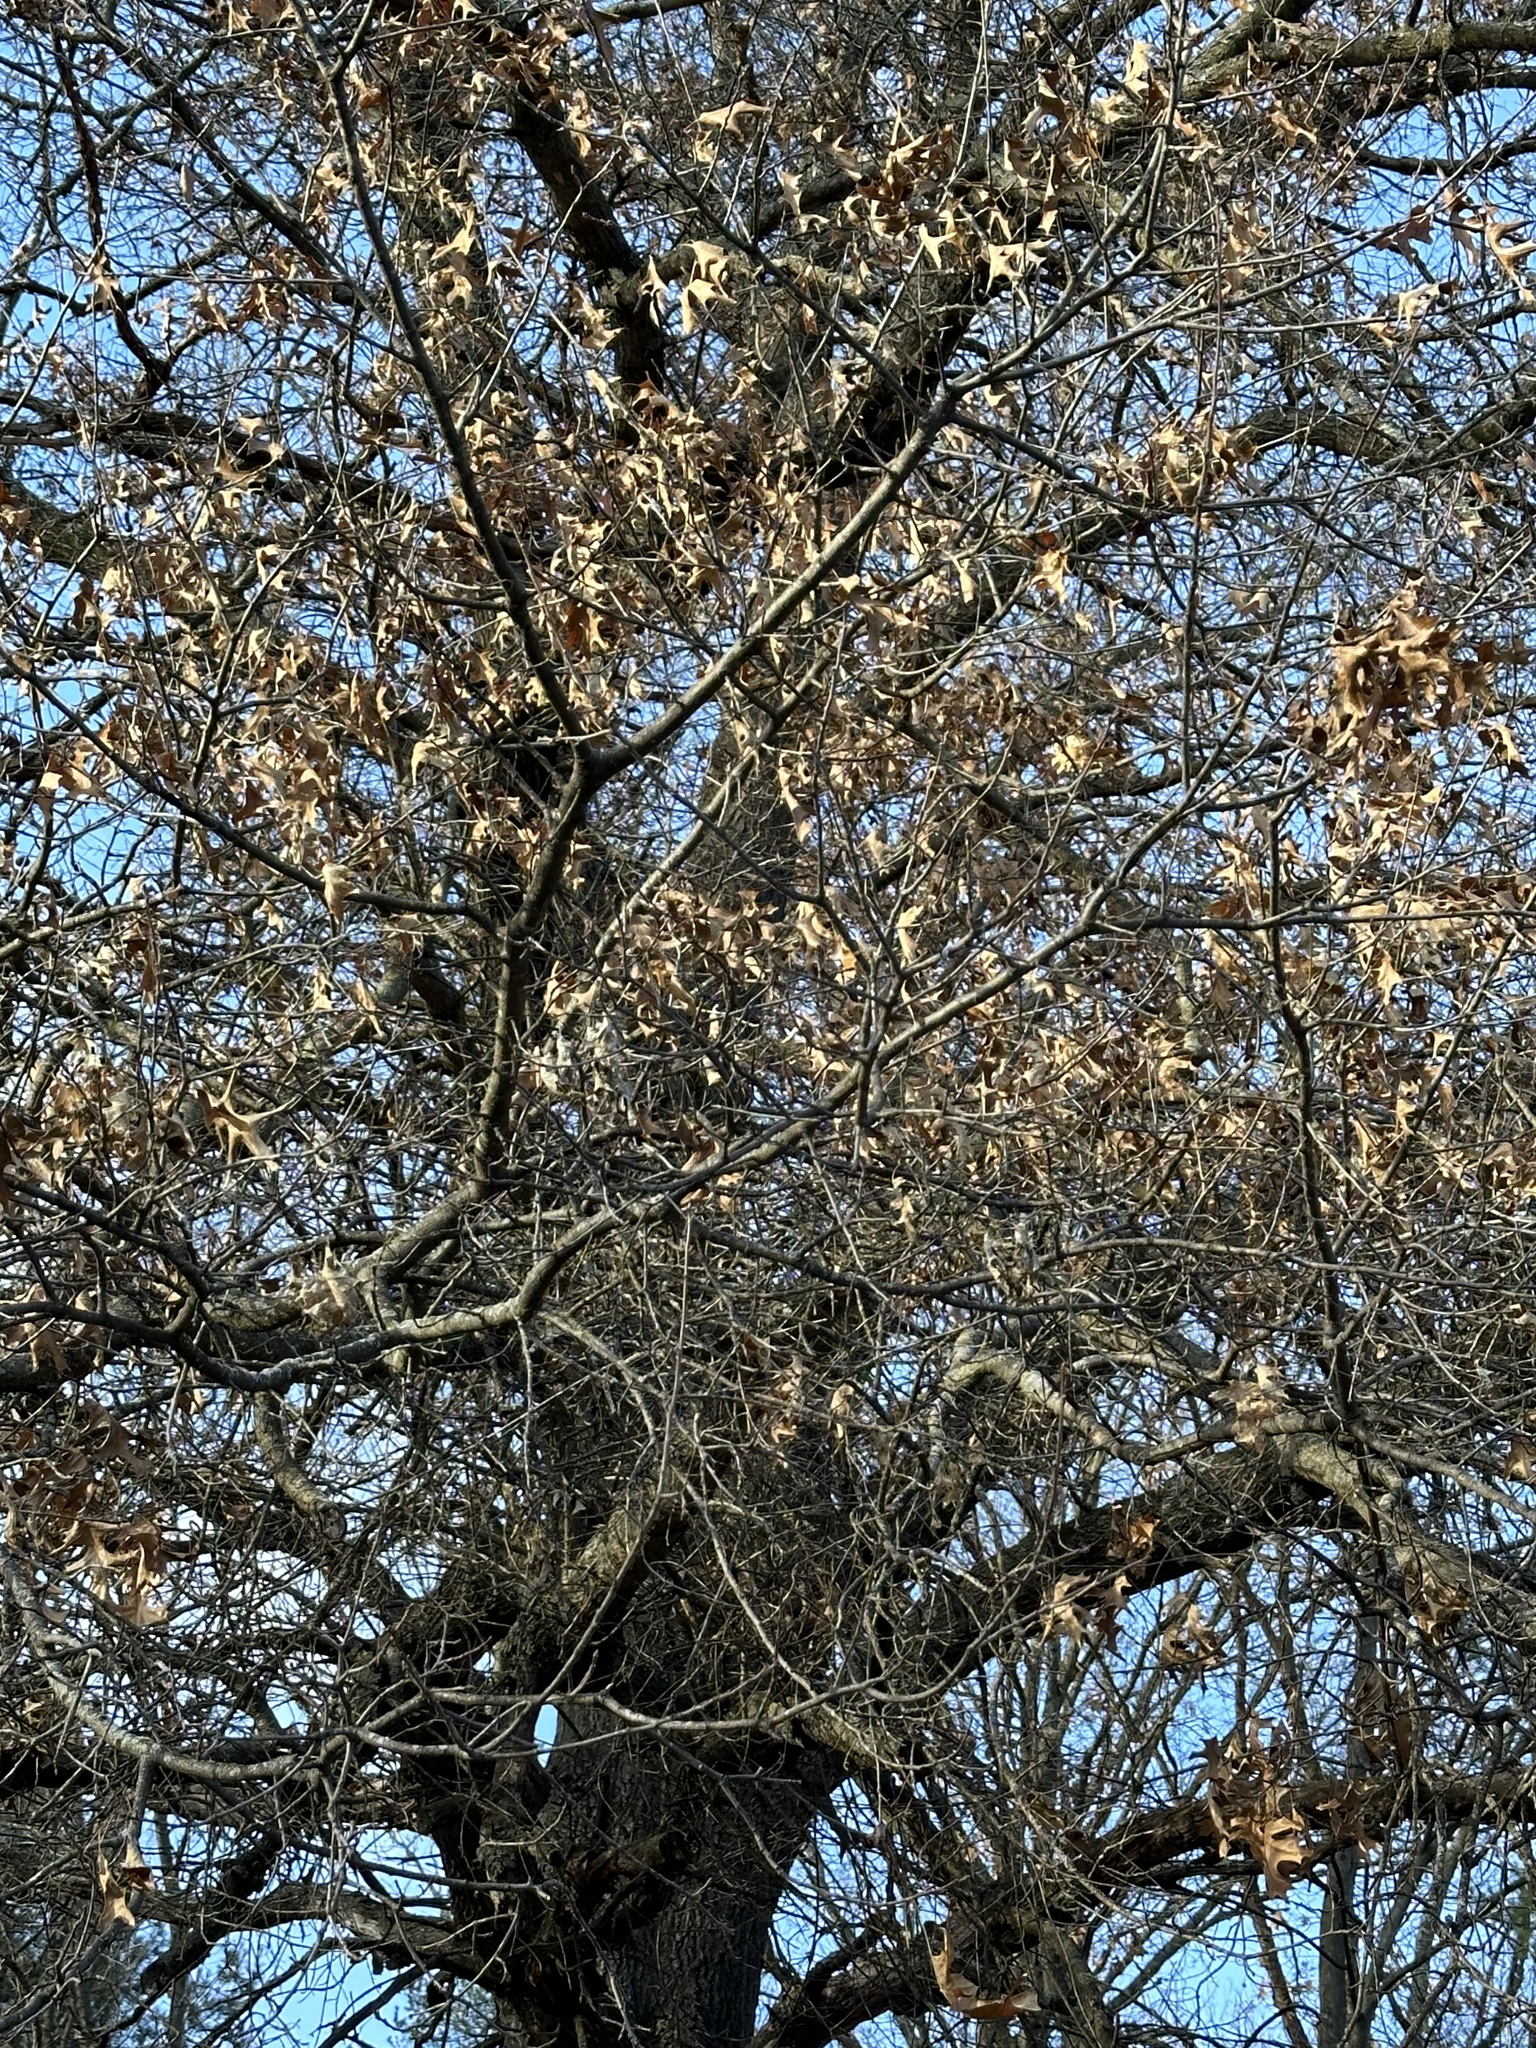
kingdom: Plantae
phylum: Tracheophyta
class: Magnoliopsida
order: Fagales
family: Fagaceae
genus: Quercus
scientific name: Quercus ellipsoidalis
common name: Hill's oak
